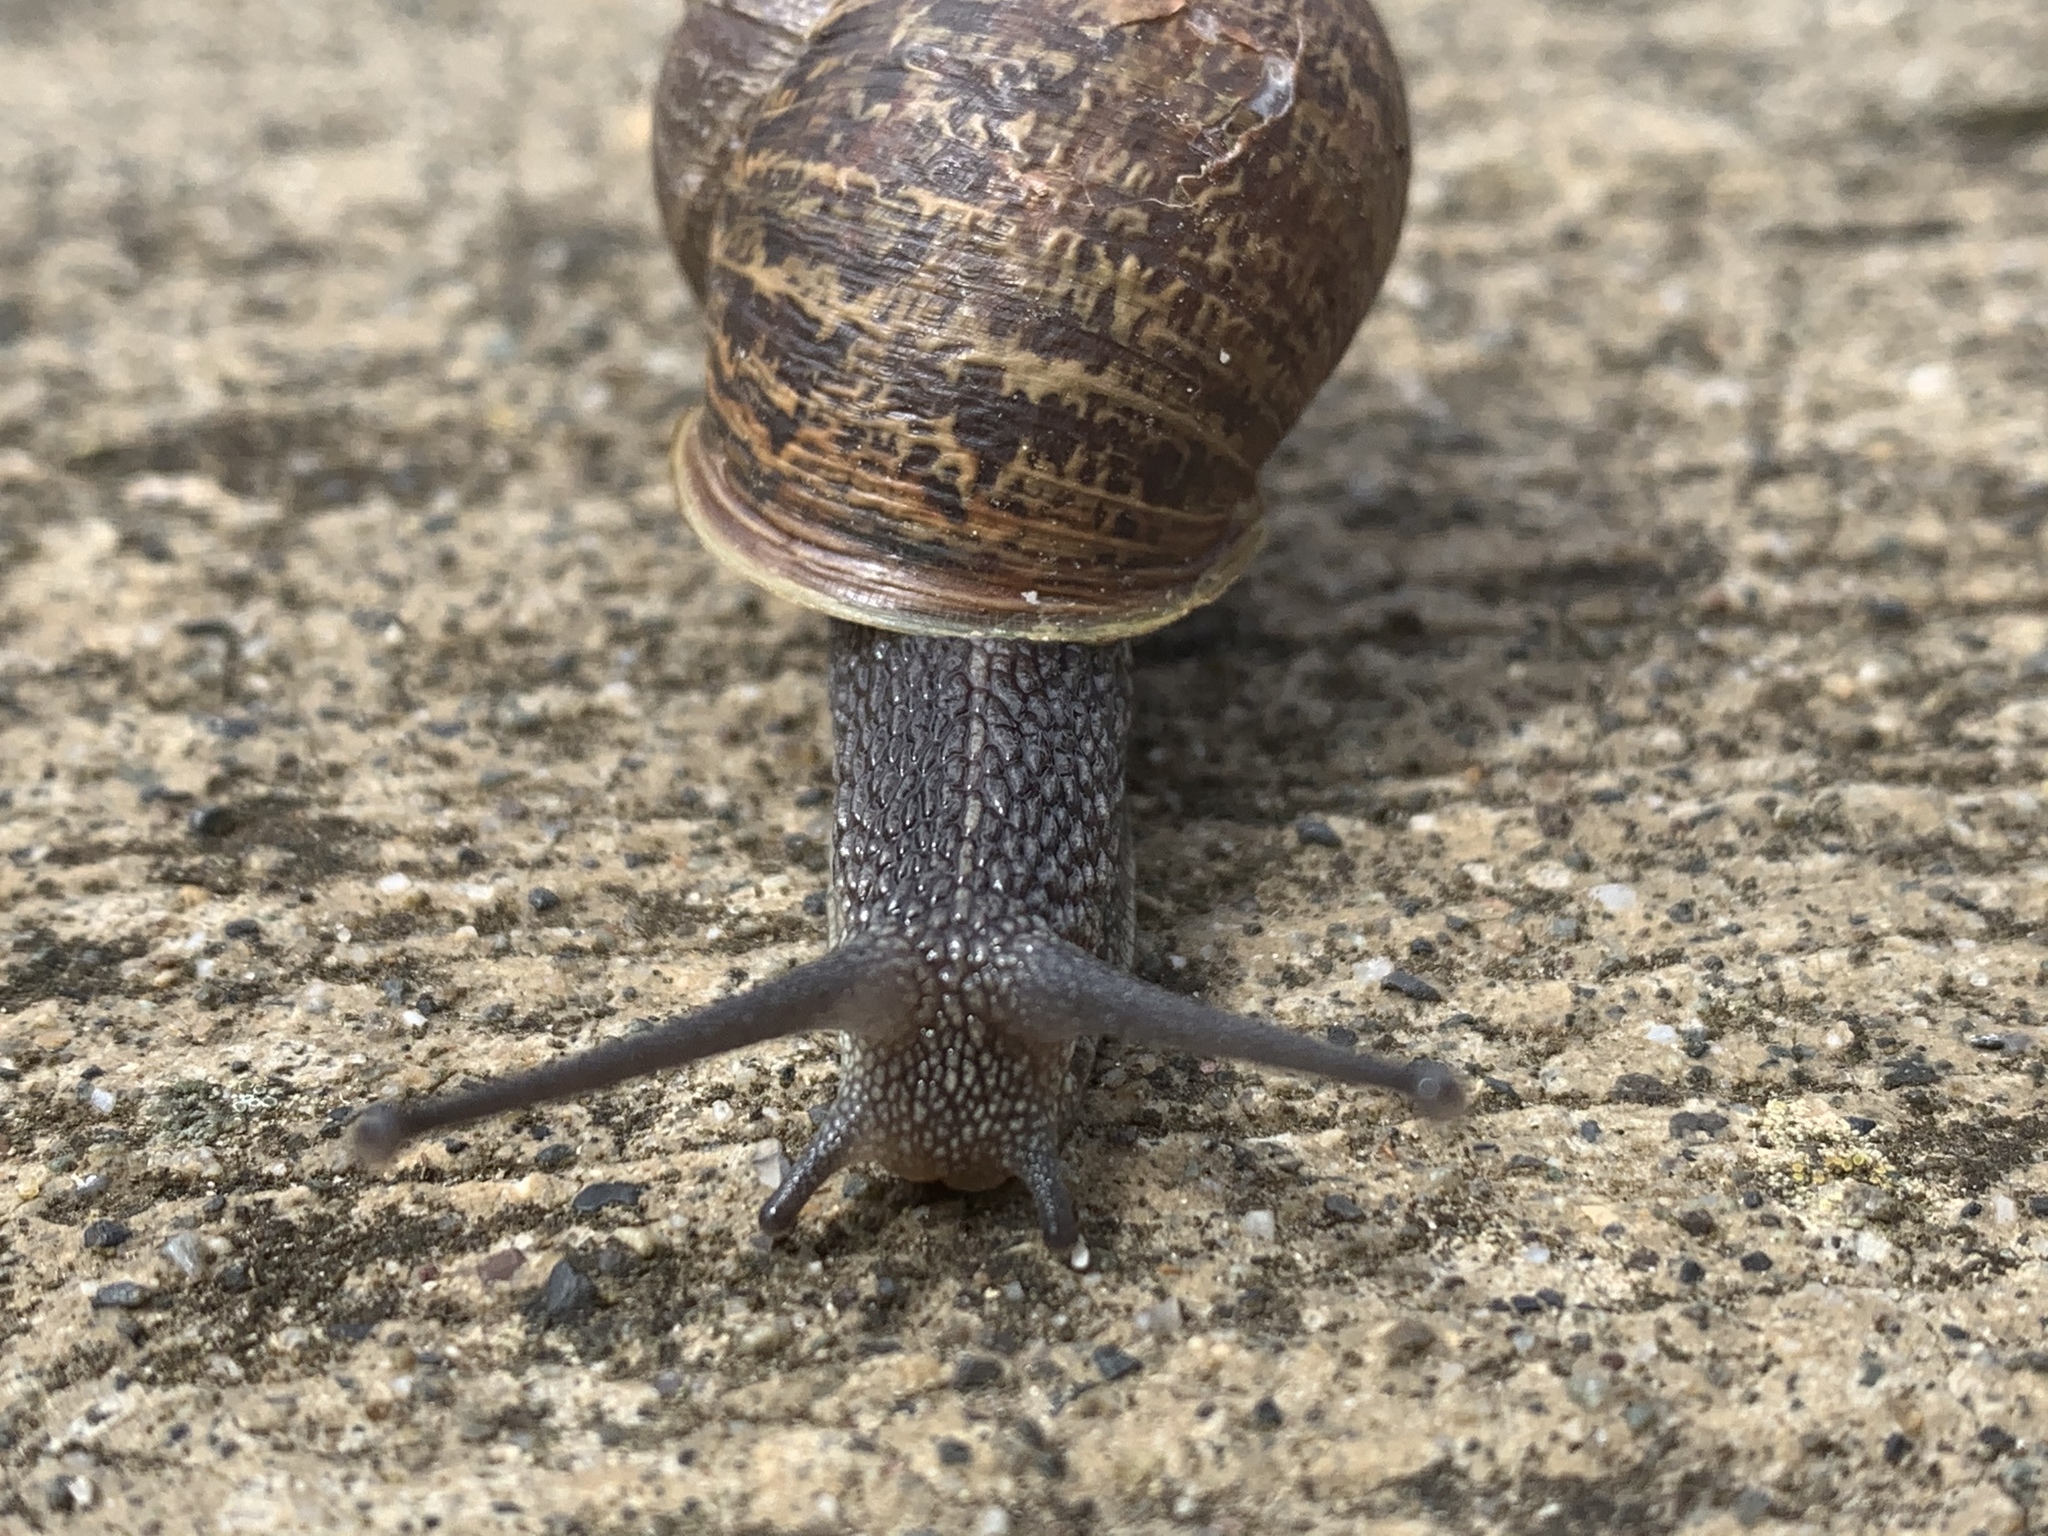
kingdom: Animalia
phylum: Mollusca
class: Gastropoda
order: Stylommatophora
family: Helicidae
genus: Cornu
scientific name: Cornu aspersum
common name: Brown garden snail
